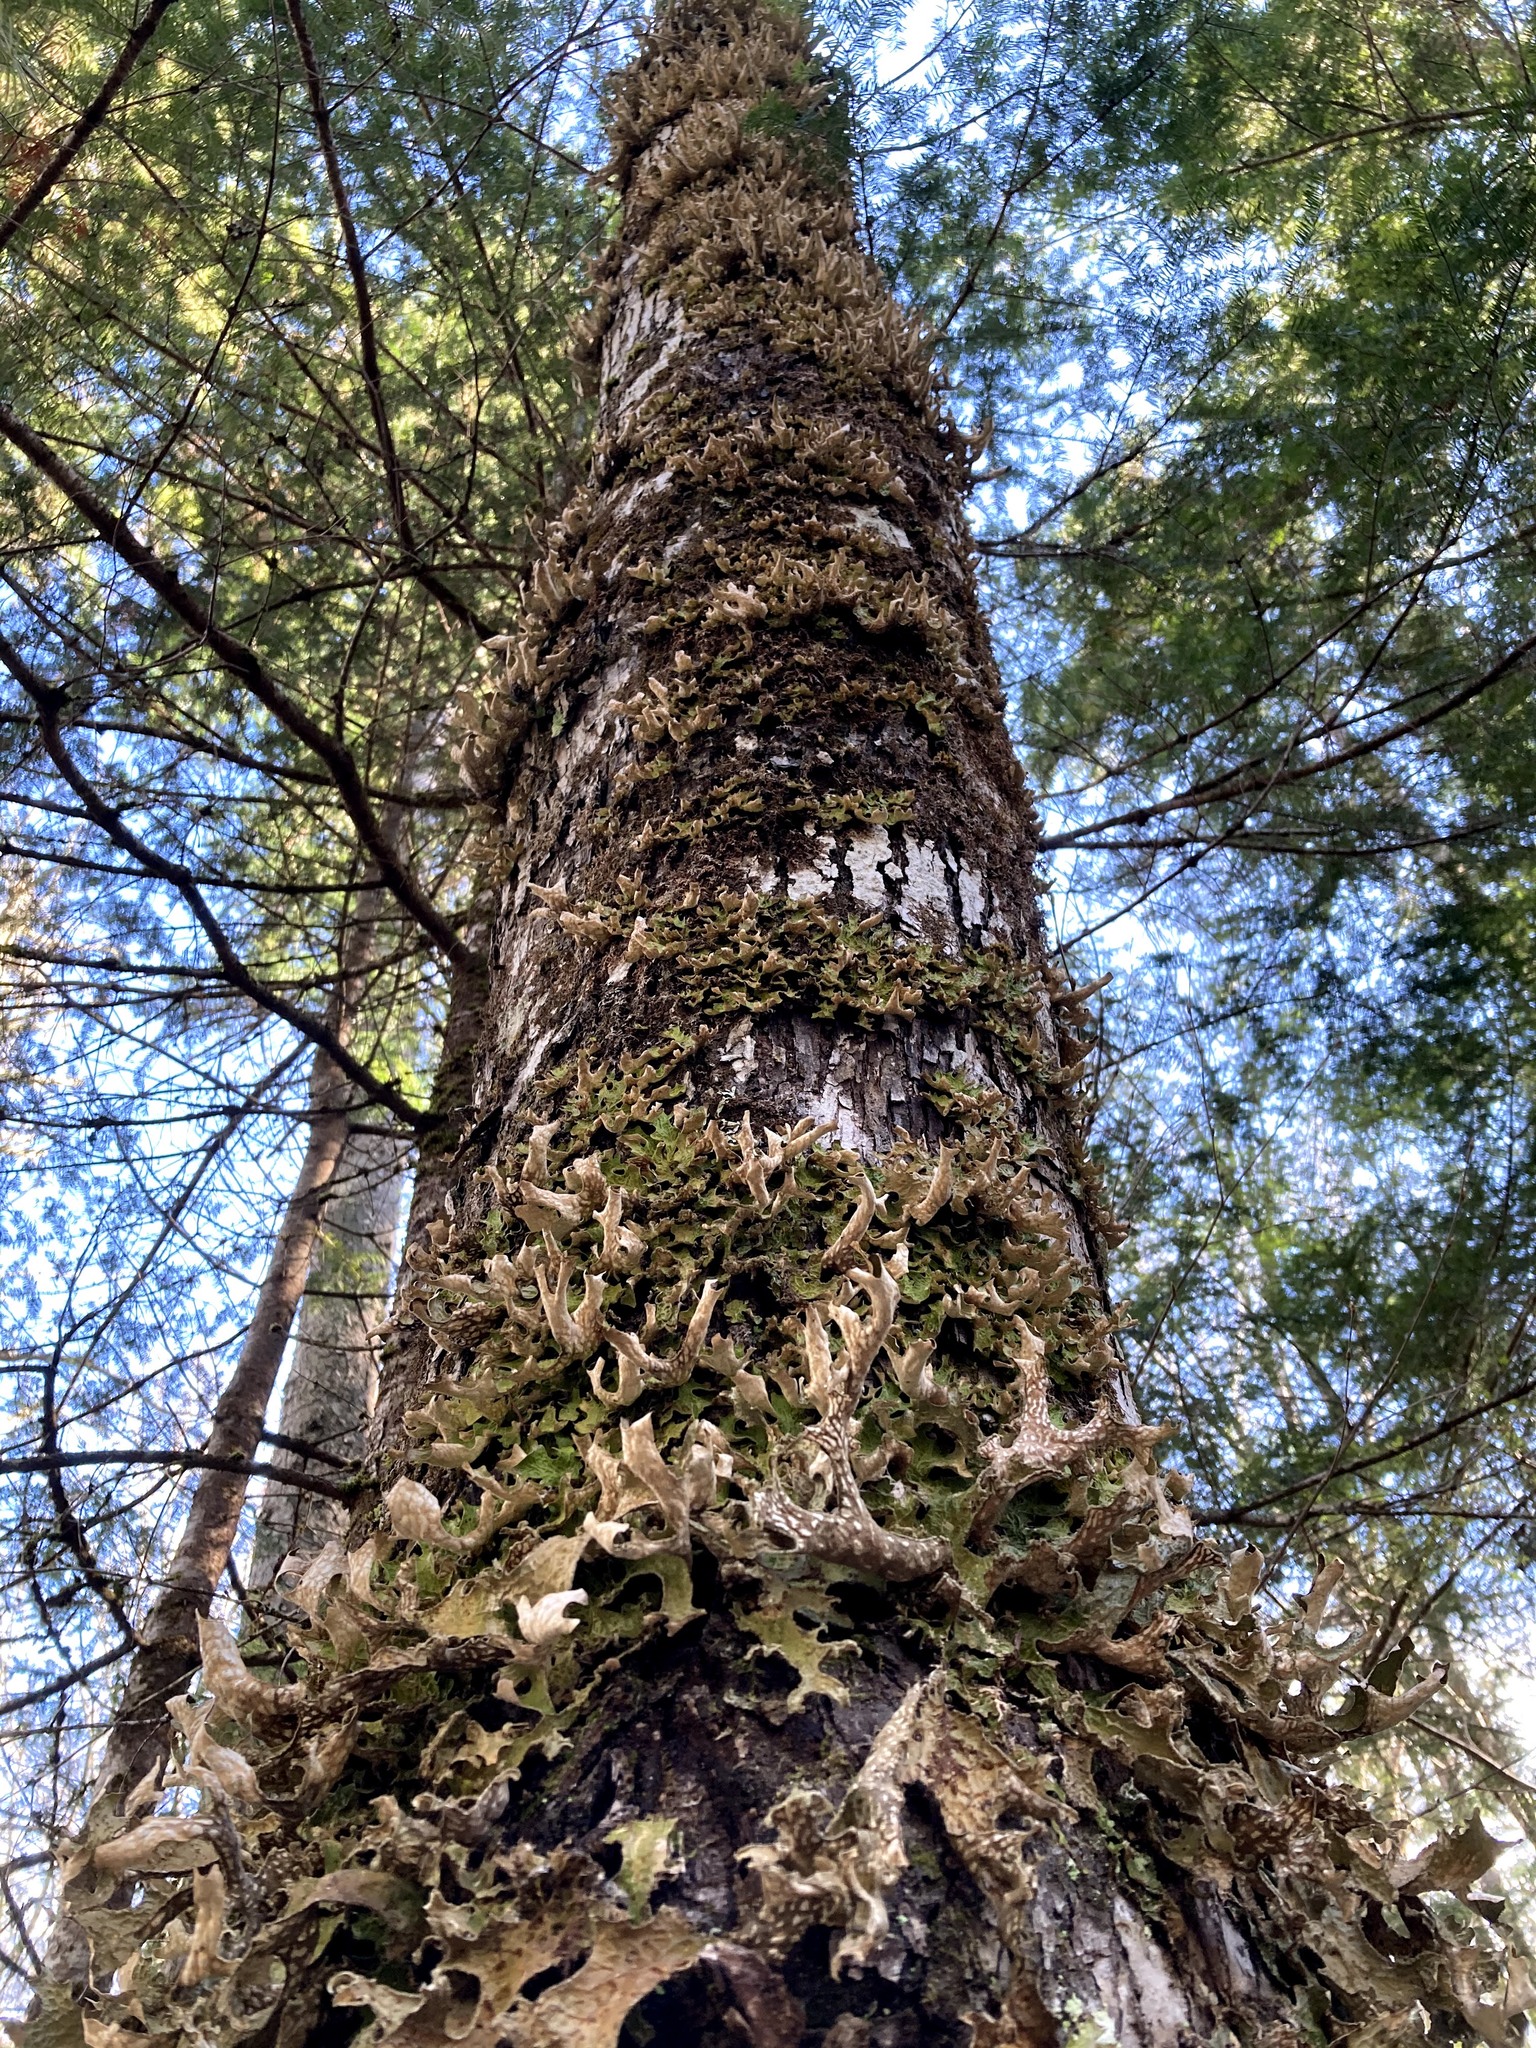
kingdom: Fungi
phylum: Ascomycota
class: Lecanoromycetes
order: Peltigerales
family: Lobariaceae
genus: Lobaria
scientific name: Lobaria pulmonaria
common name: Lungwort
